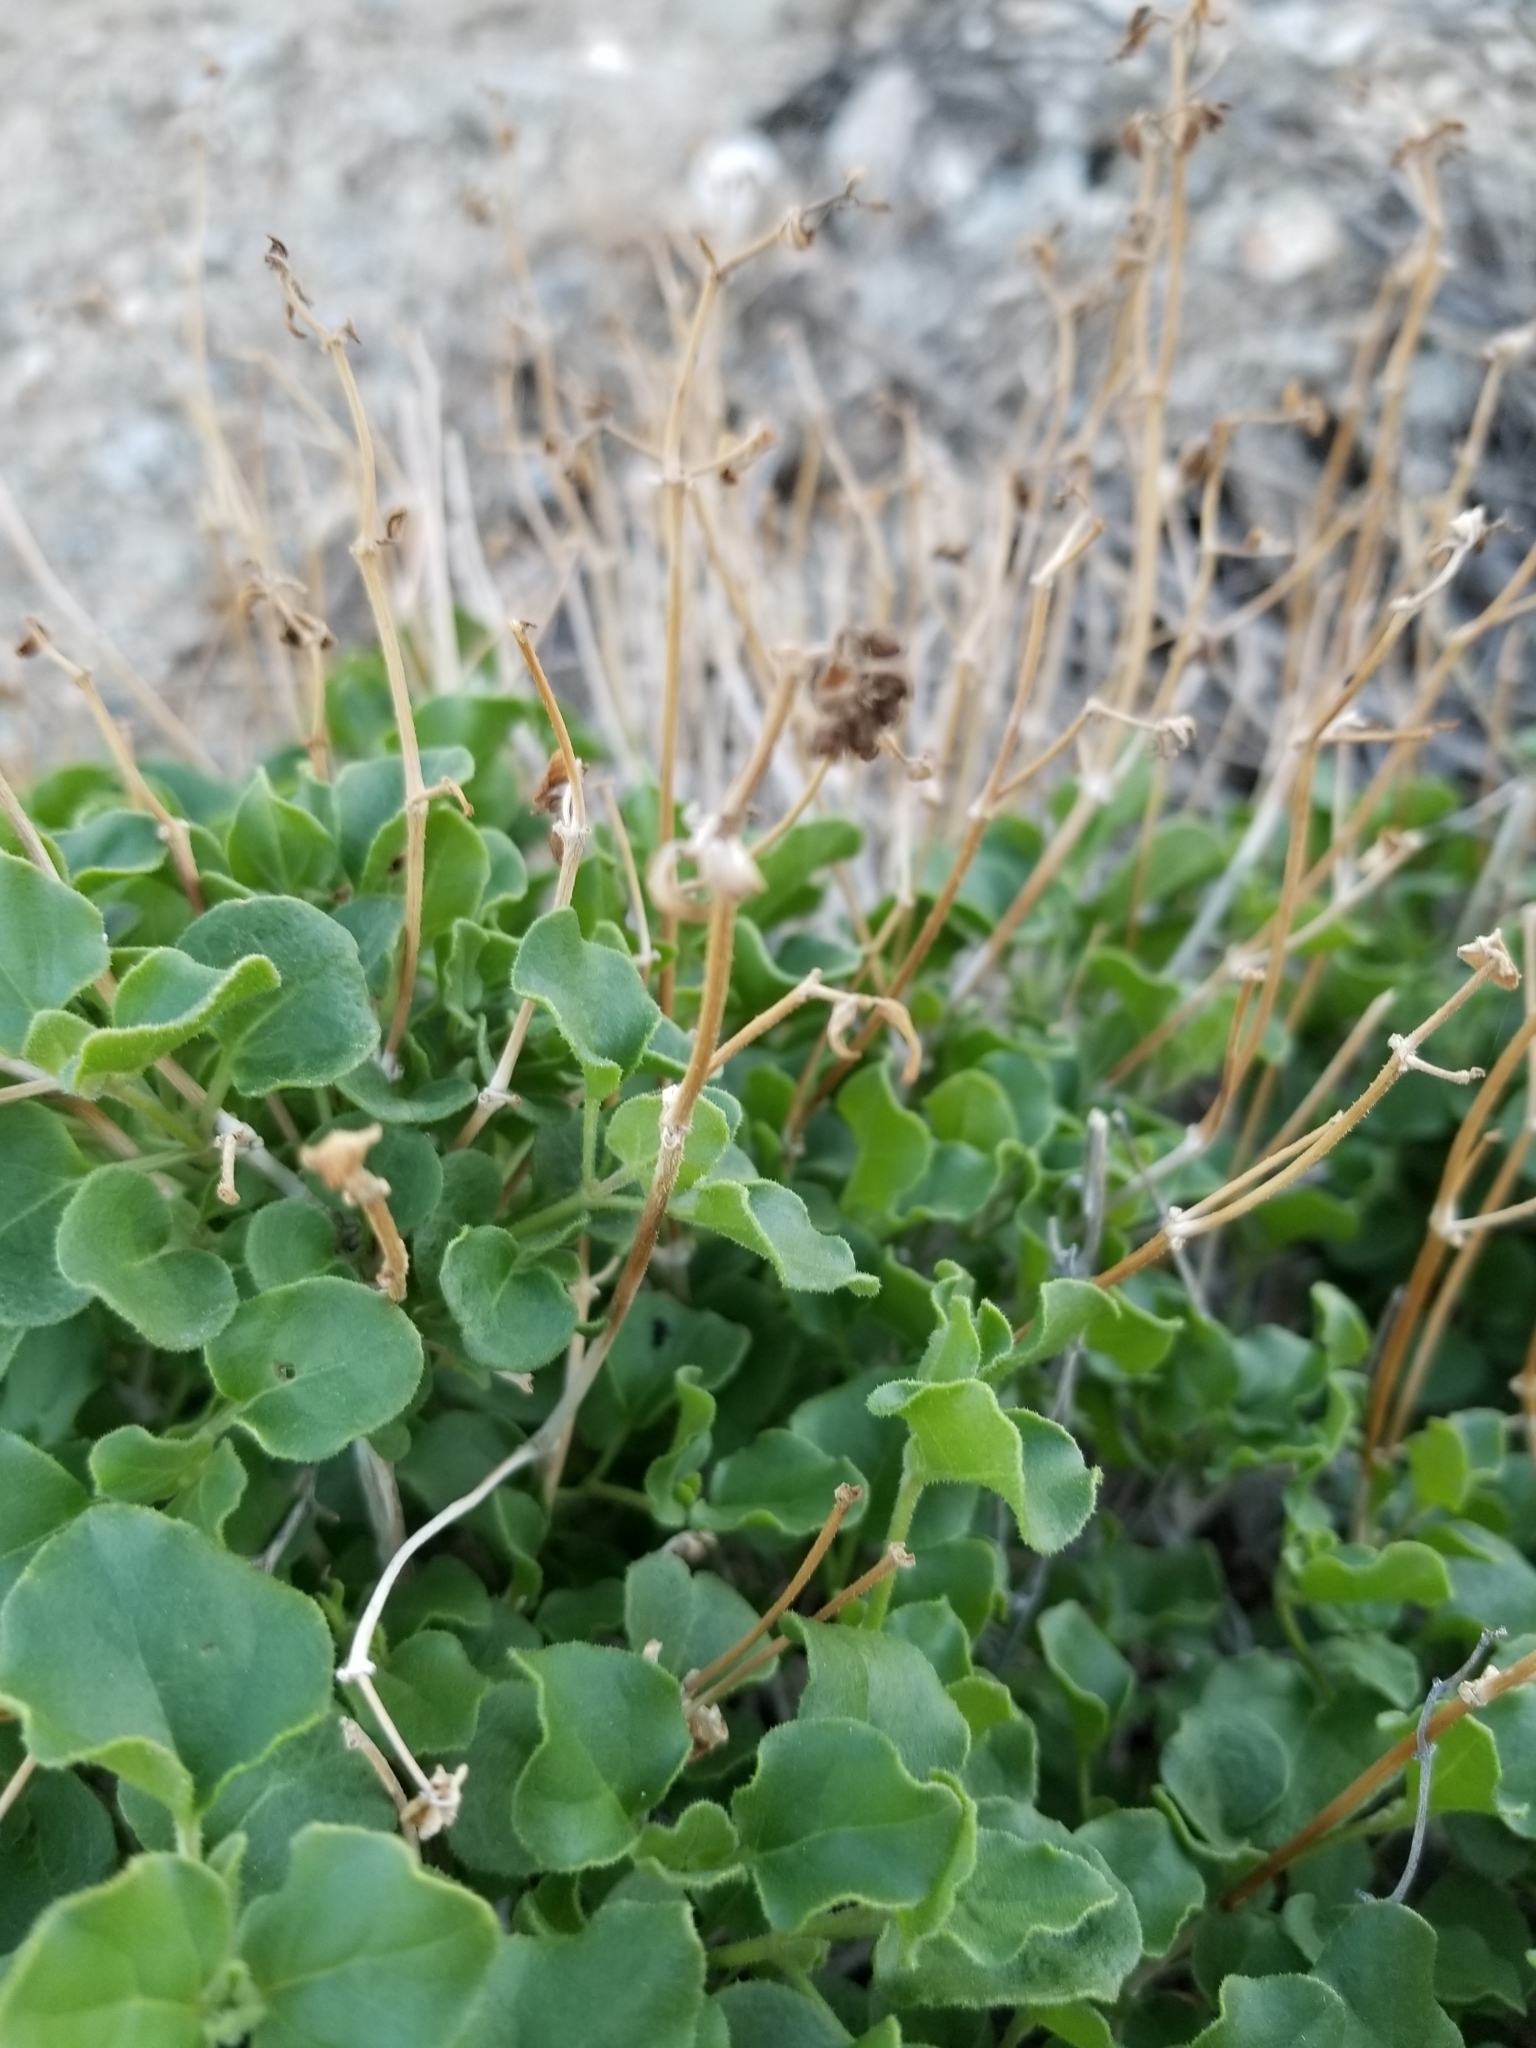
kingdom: Plantae
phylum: Tracheophyta
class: Magnoliopsida
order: Caryophyllales
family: Nyctaginaceae
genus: Mirabilis
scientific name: Mirabilis laevis
